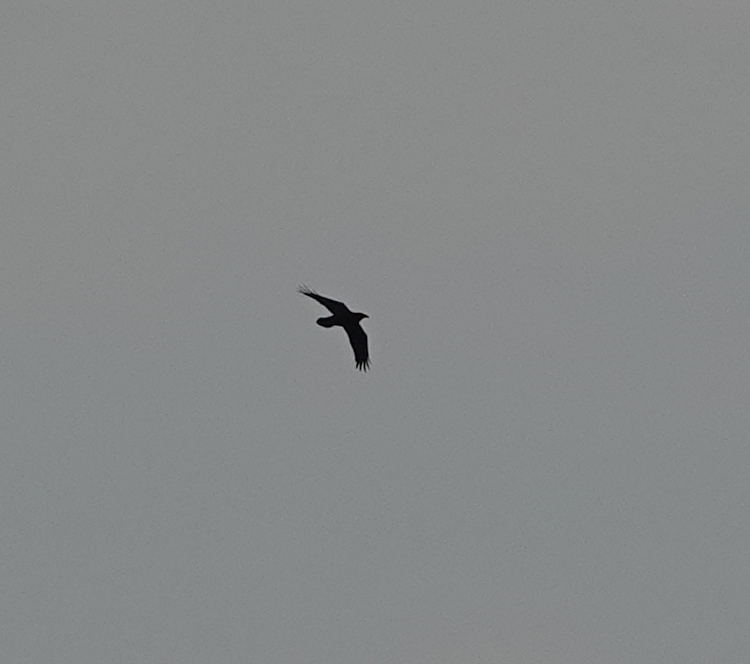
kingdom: Animalia
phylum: Chordata
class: Aves
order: Passeriformes
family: Corvidae
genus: Corvus
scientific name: Corvus corax
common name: Common raven
